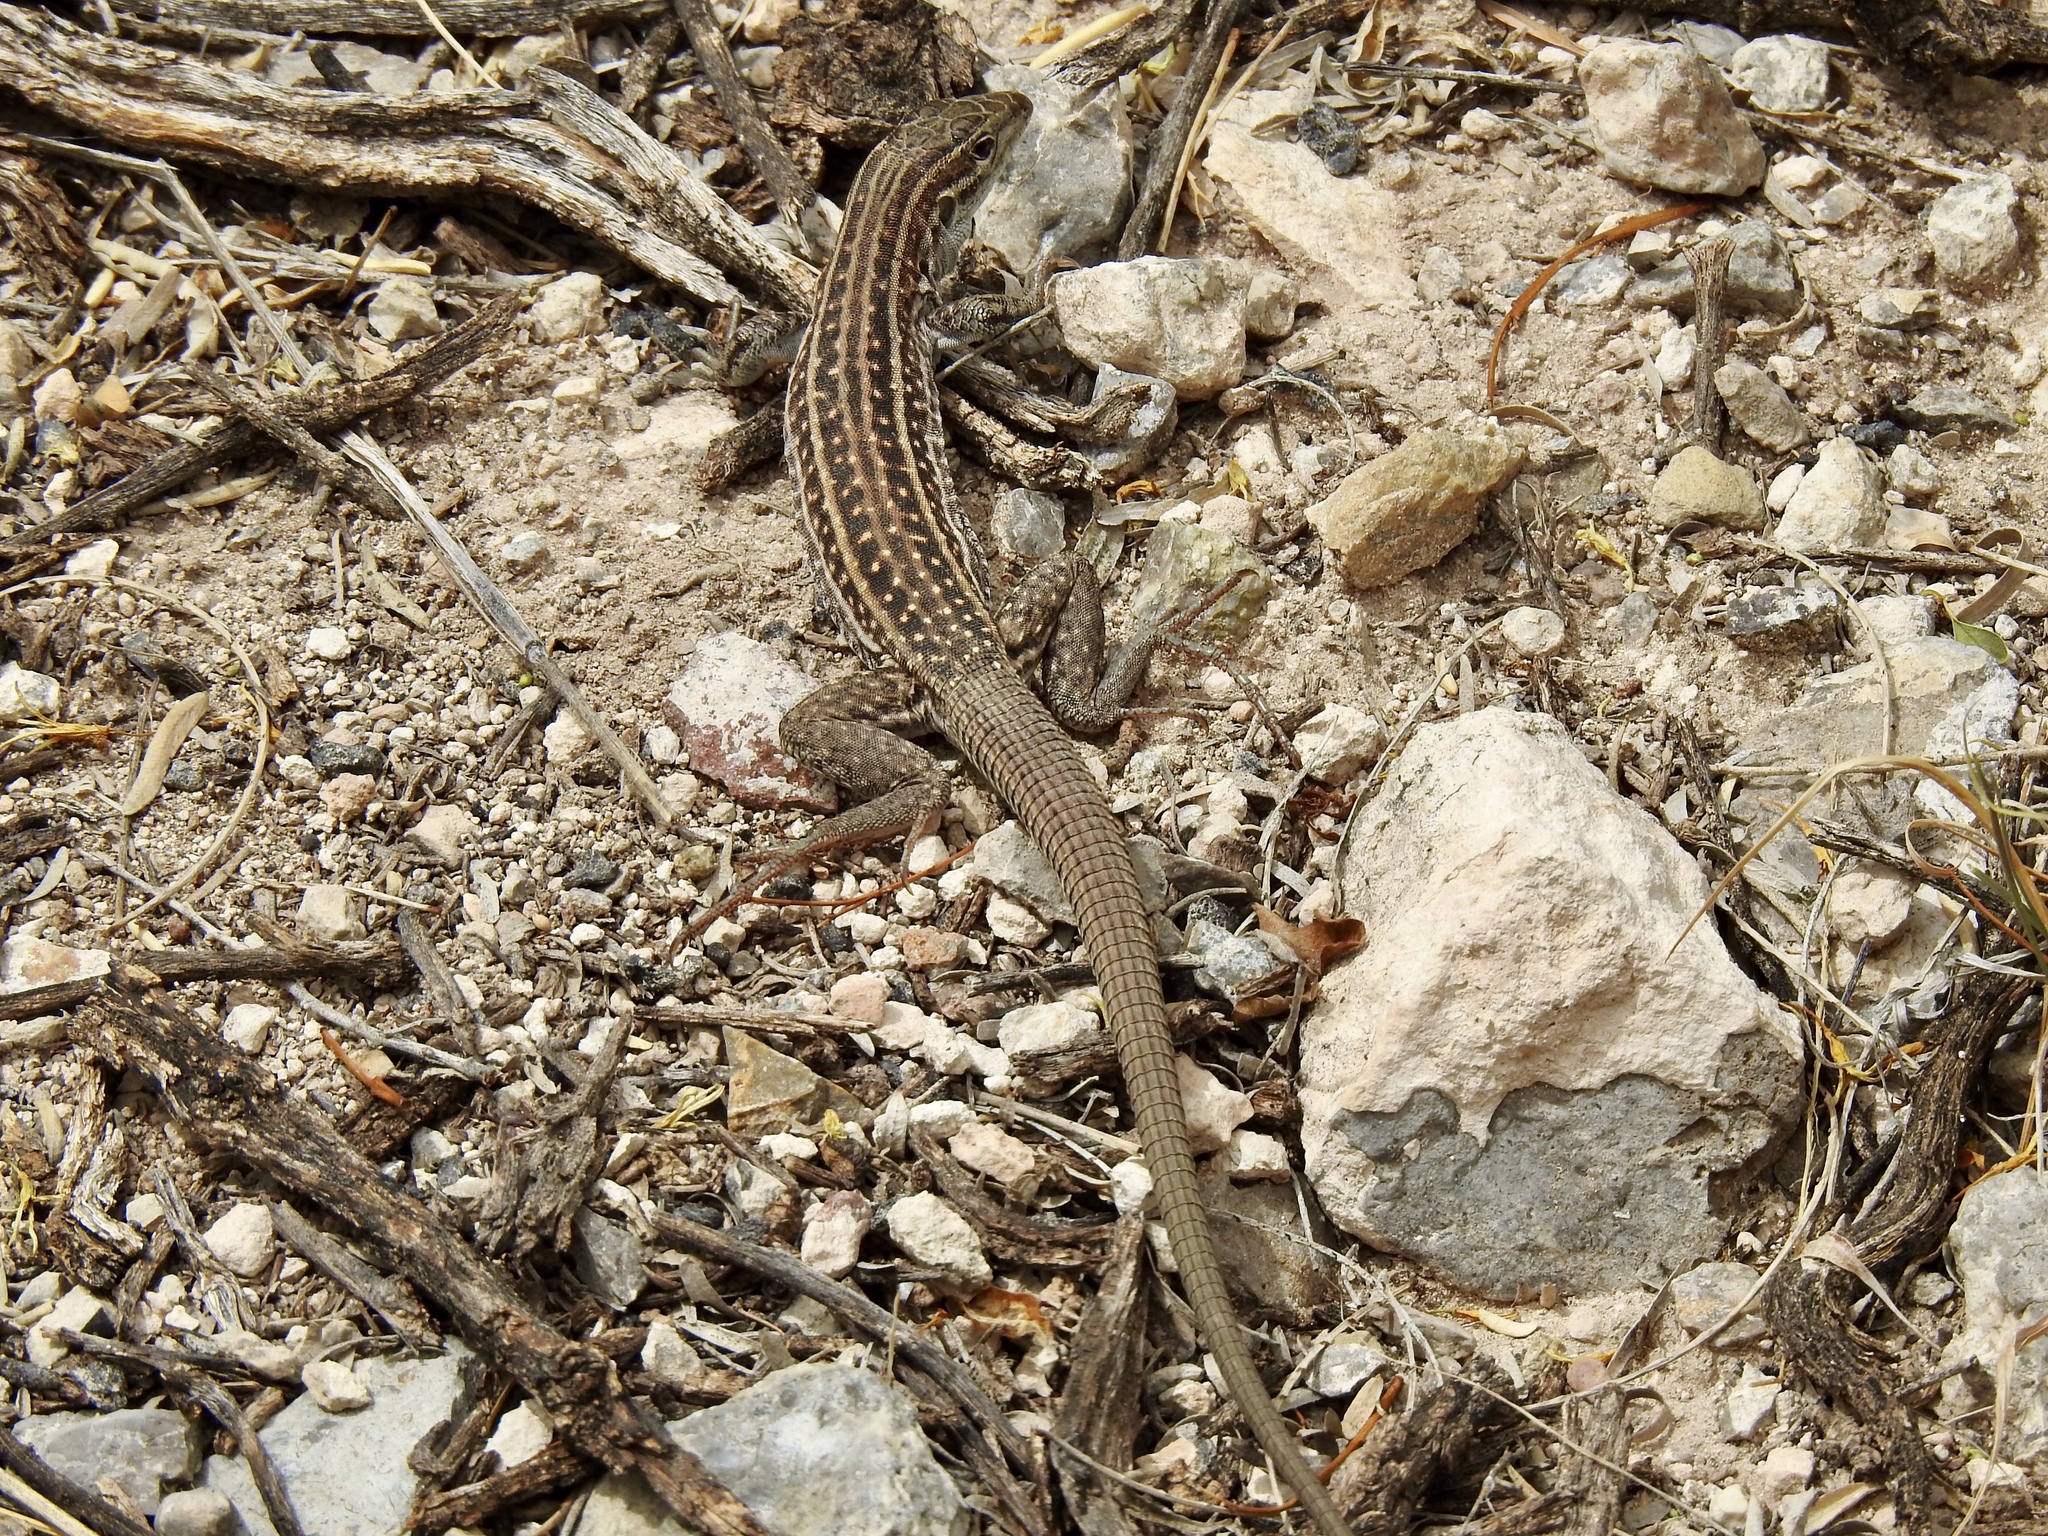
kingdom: Animalia
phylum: Chordata
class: Squamata
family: Teiidae
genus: Aspidoscelis
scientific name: Aspidoscelis exsanguis
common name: Chihuahuan spotted whiptail
